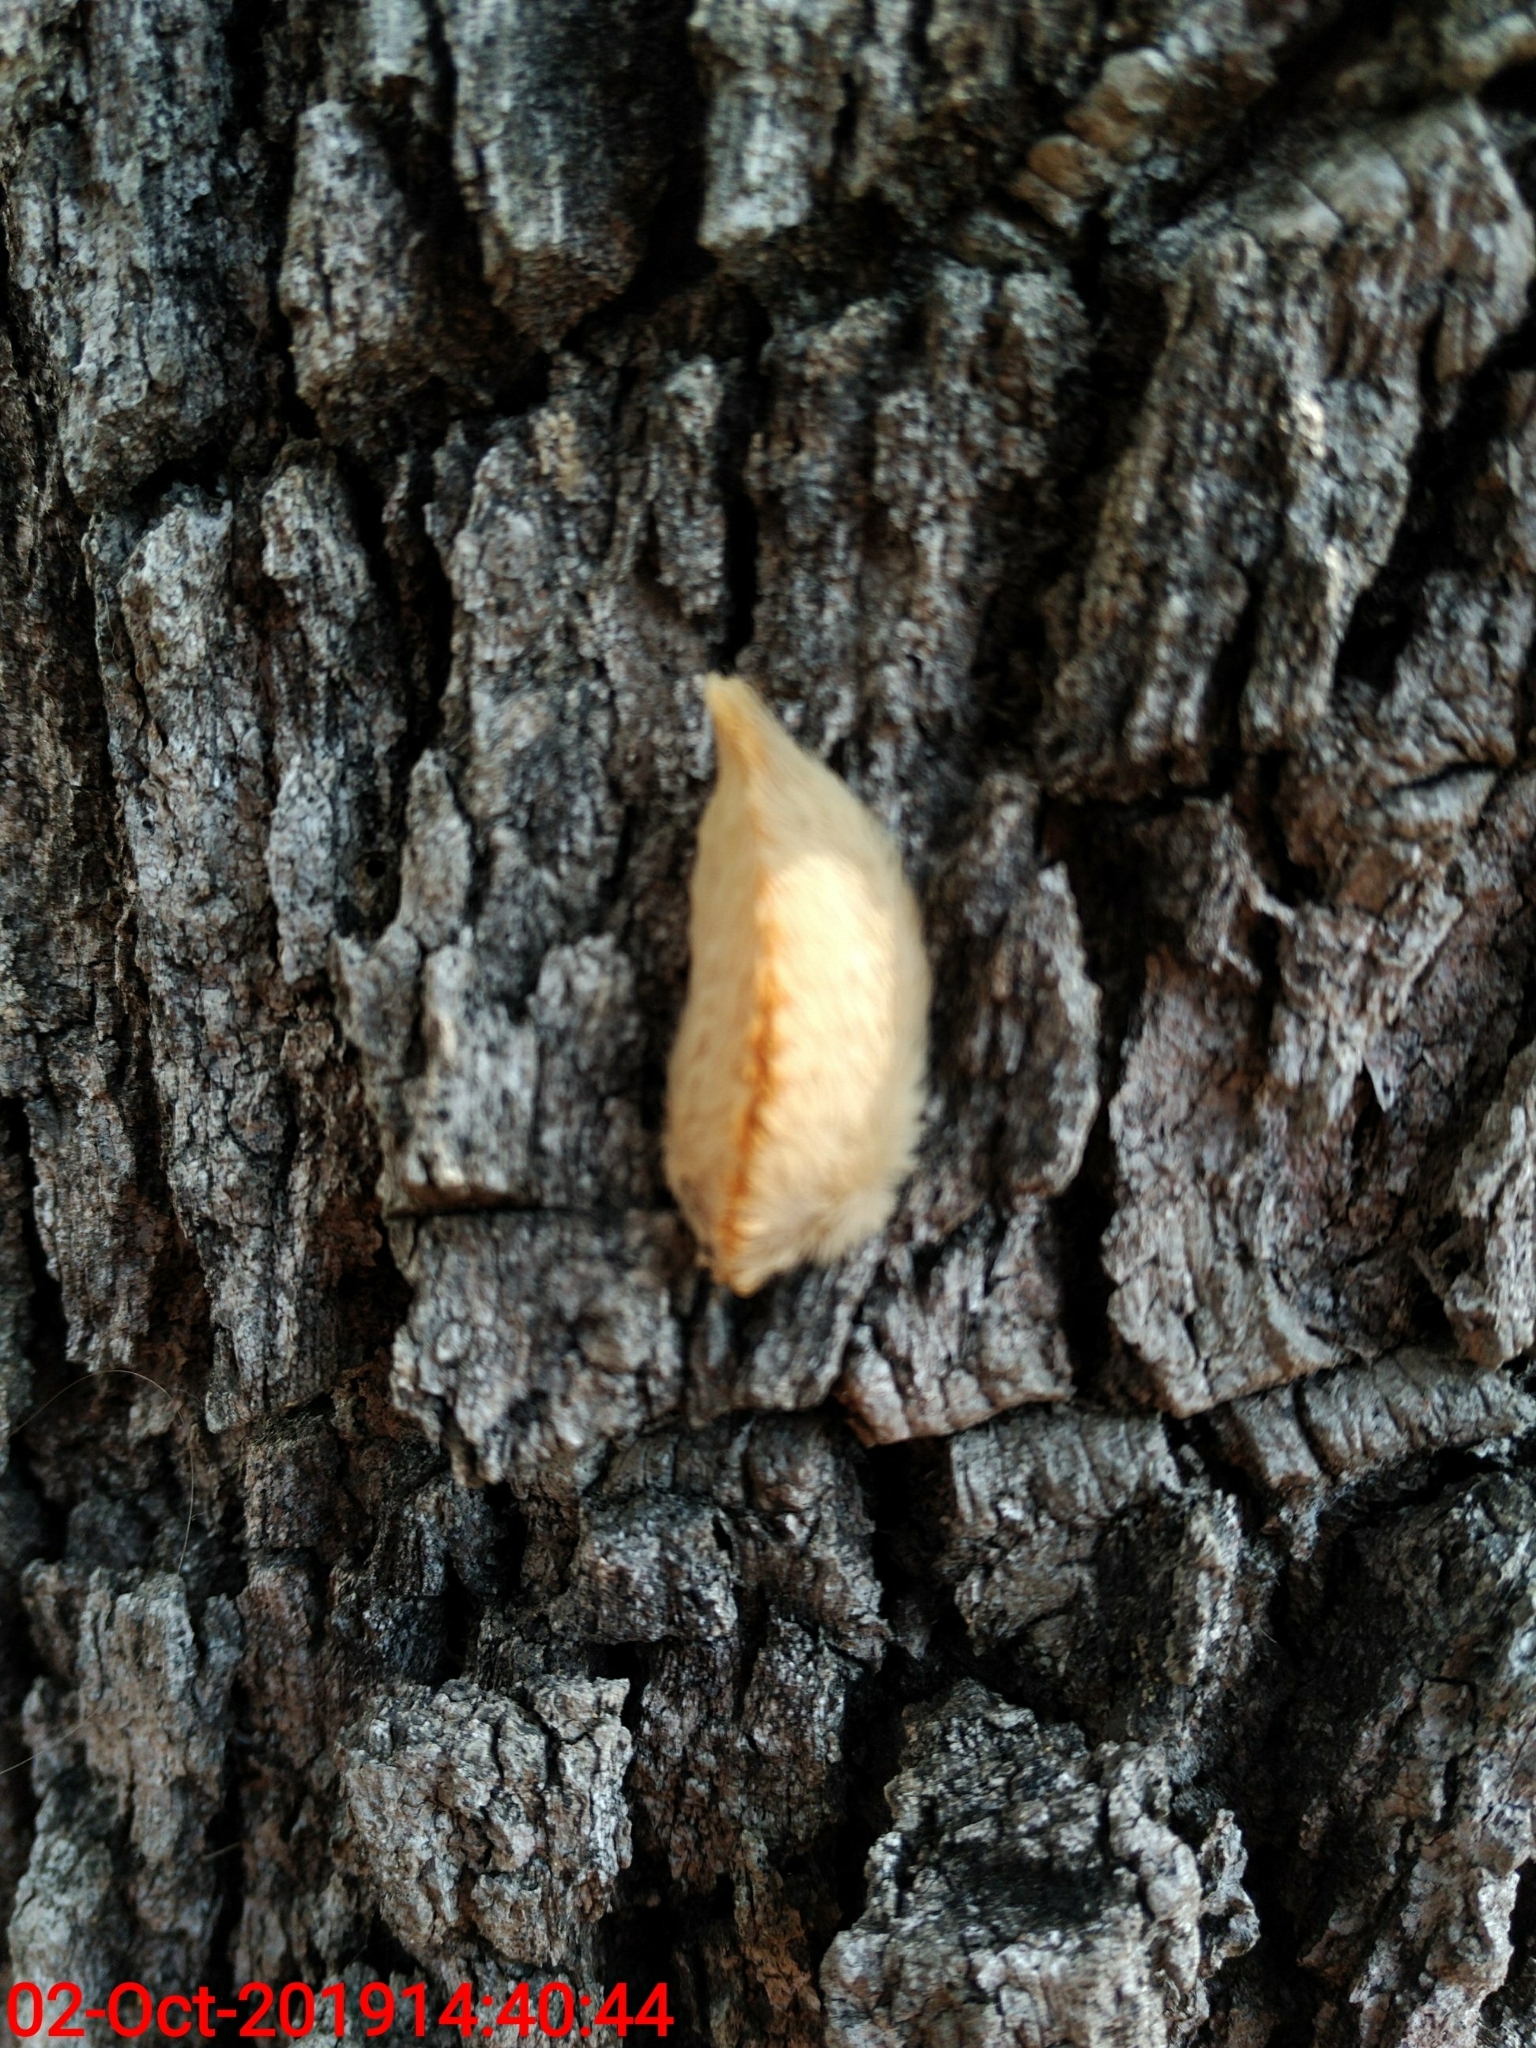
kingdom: Animalia
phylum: Arthropoda
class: Insecta
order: Lepidoptera
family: Megalopygidae
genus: Megalopyge
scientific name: Megalopyge opercularis
